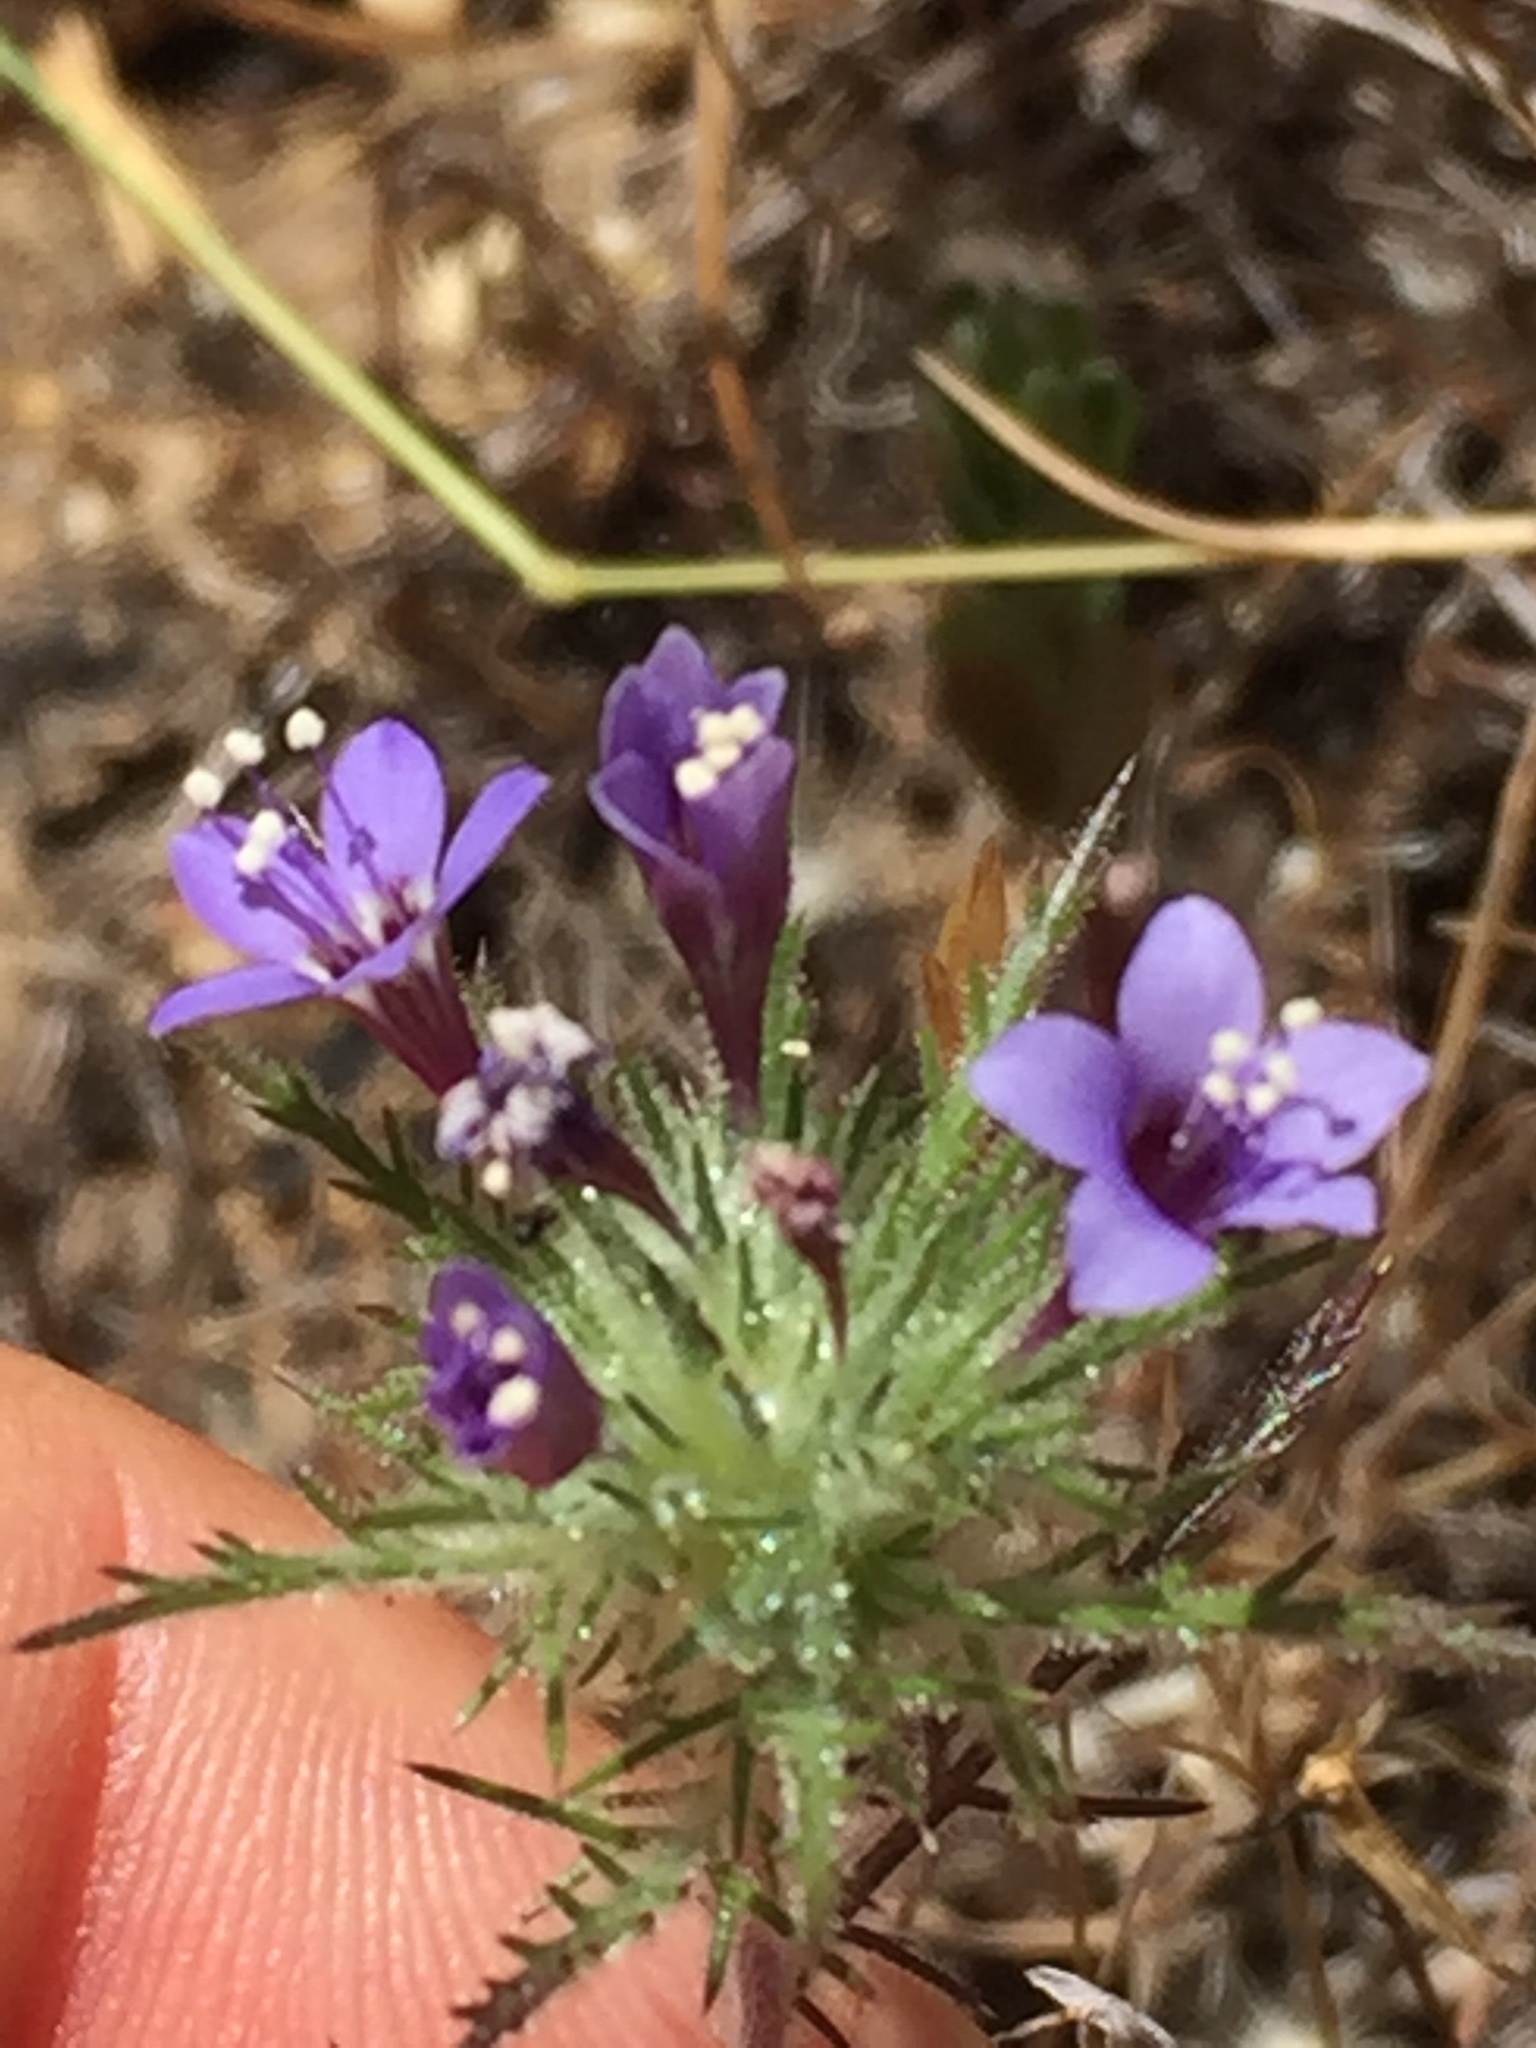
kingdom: Plantae
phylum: Tracheophyta
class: Magnoliopsida
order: Ericales
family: Polemoniaceae
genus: Navarretia
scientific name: Navarretia pubescens
